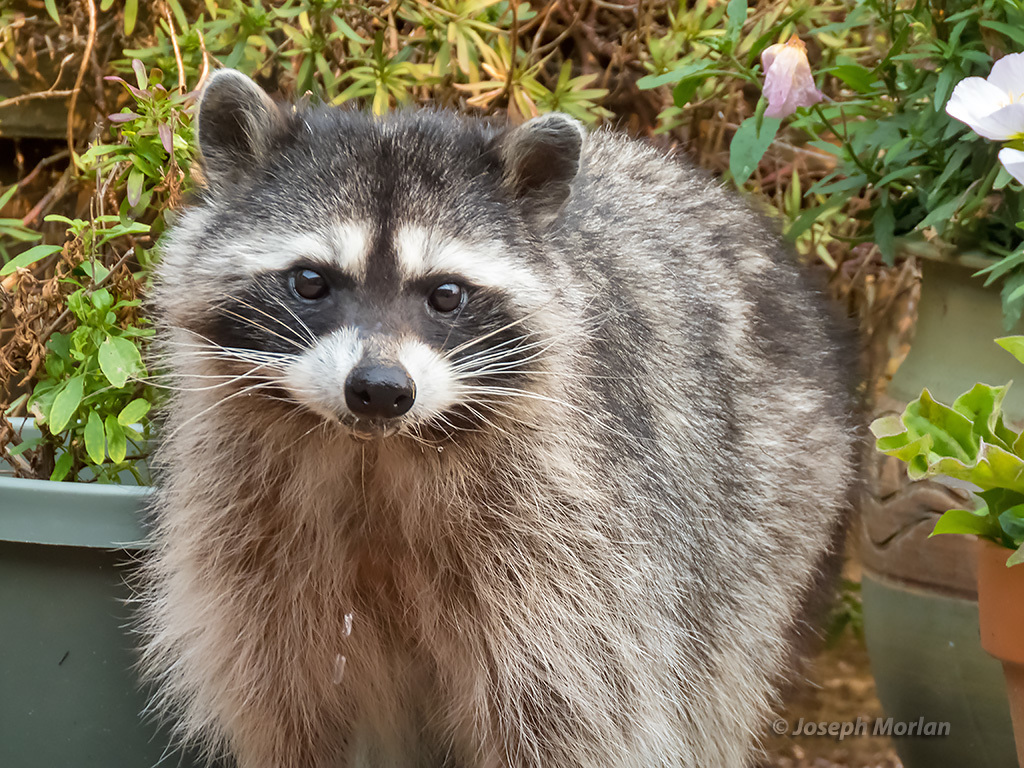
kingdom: Animalia
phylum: Chordata
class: Mammalia
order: Carnivora
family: Procyonidae
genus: Procyon
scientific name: Procyon lotor
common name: Raccoon
